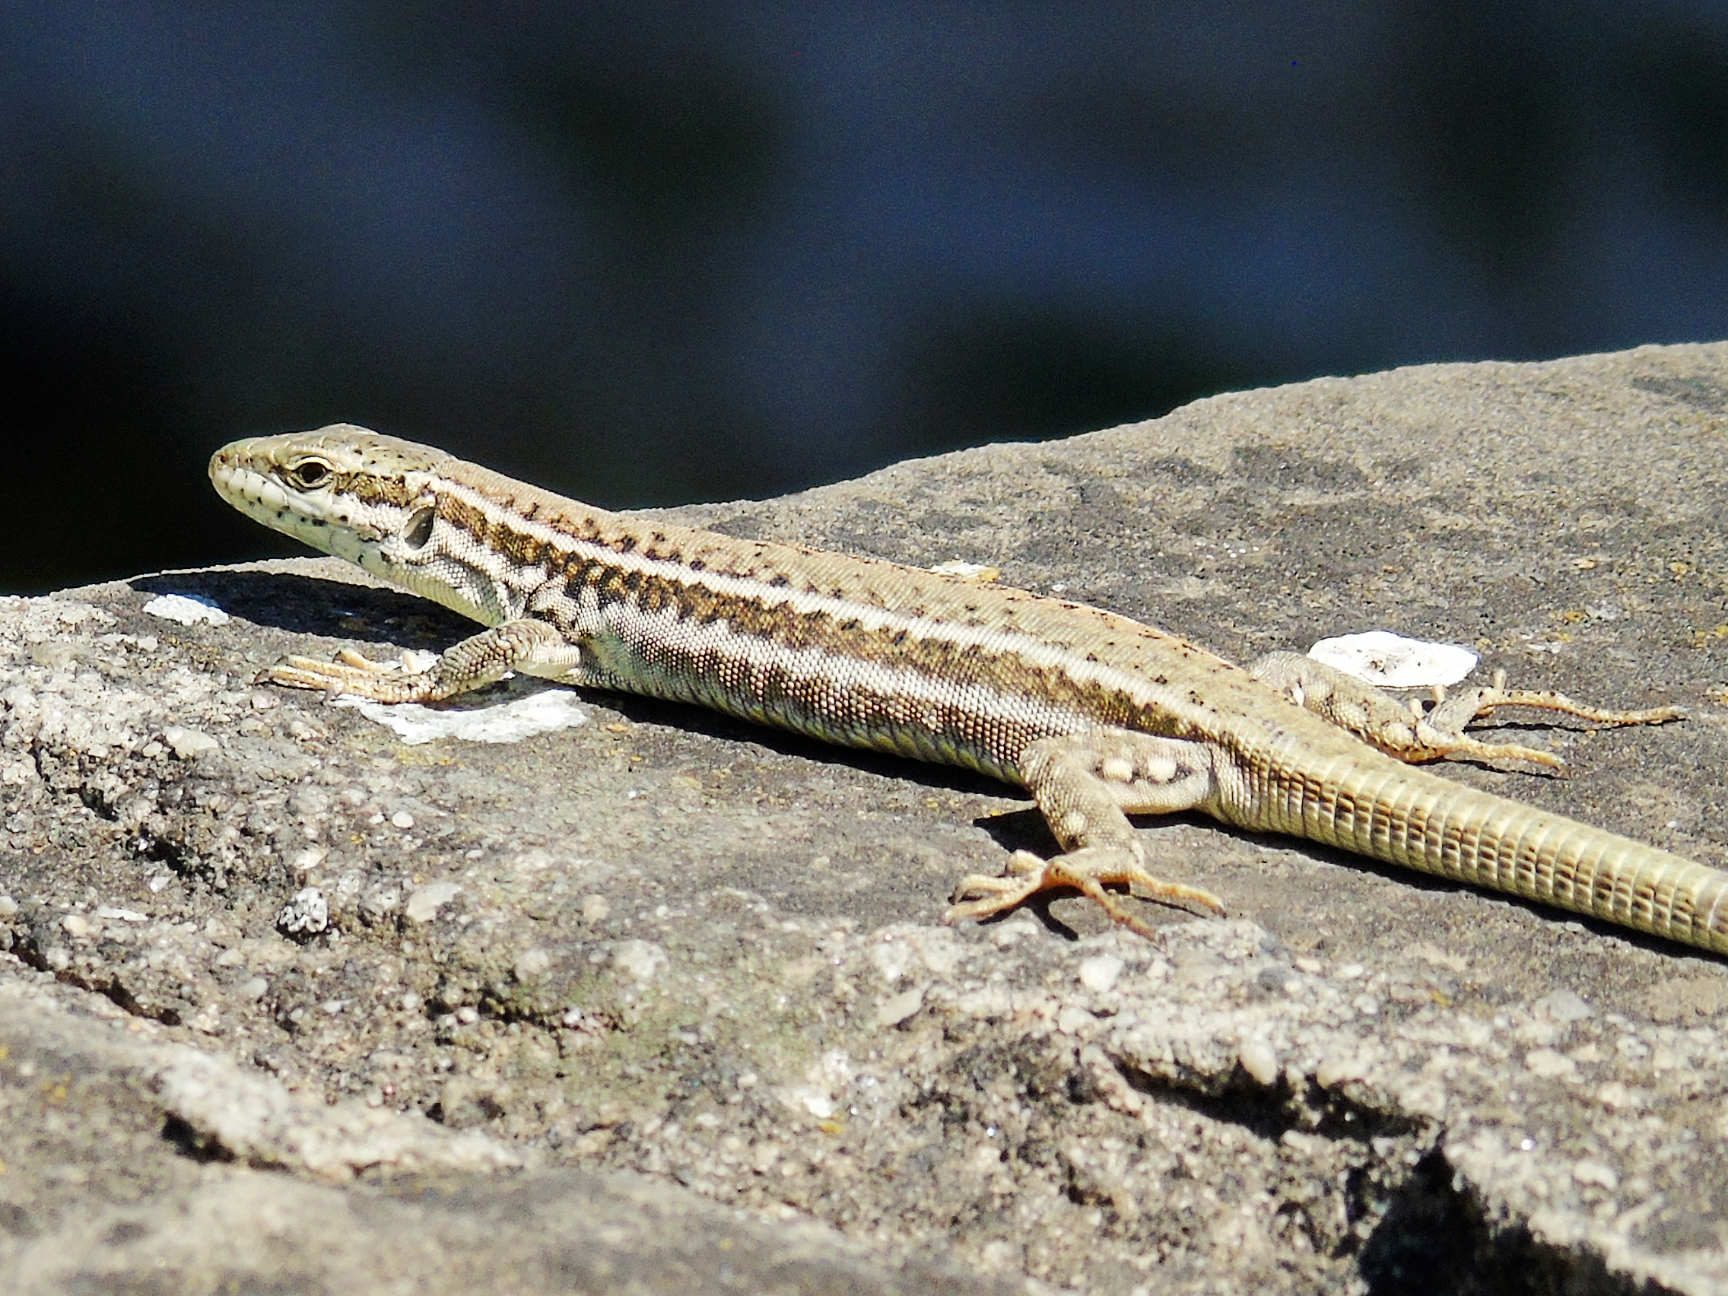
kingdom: Animalia
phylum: Chordata
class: Squamata
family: Lacertidae
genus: Podarcis
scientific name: Podarcis erhardii
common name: Erhard's wall lizard
